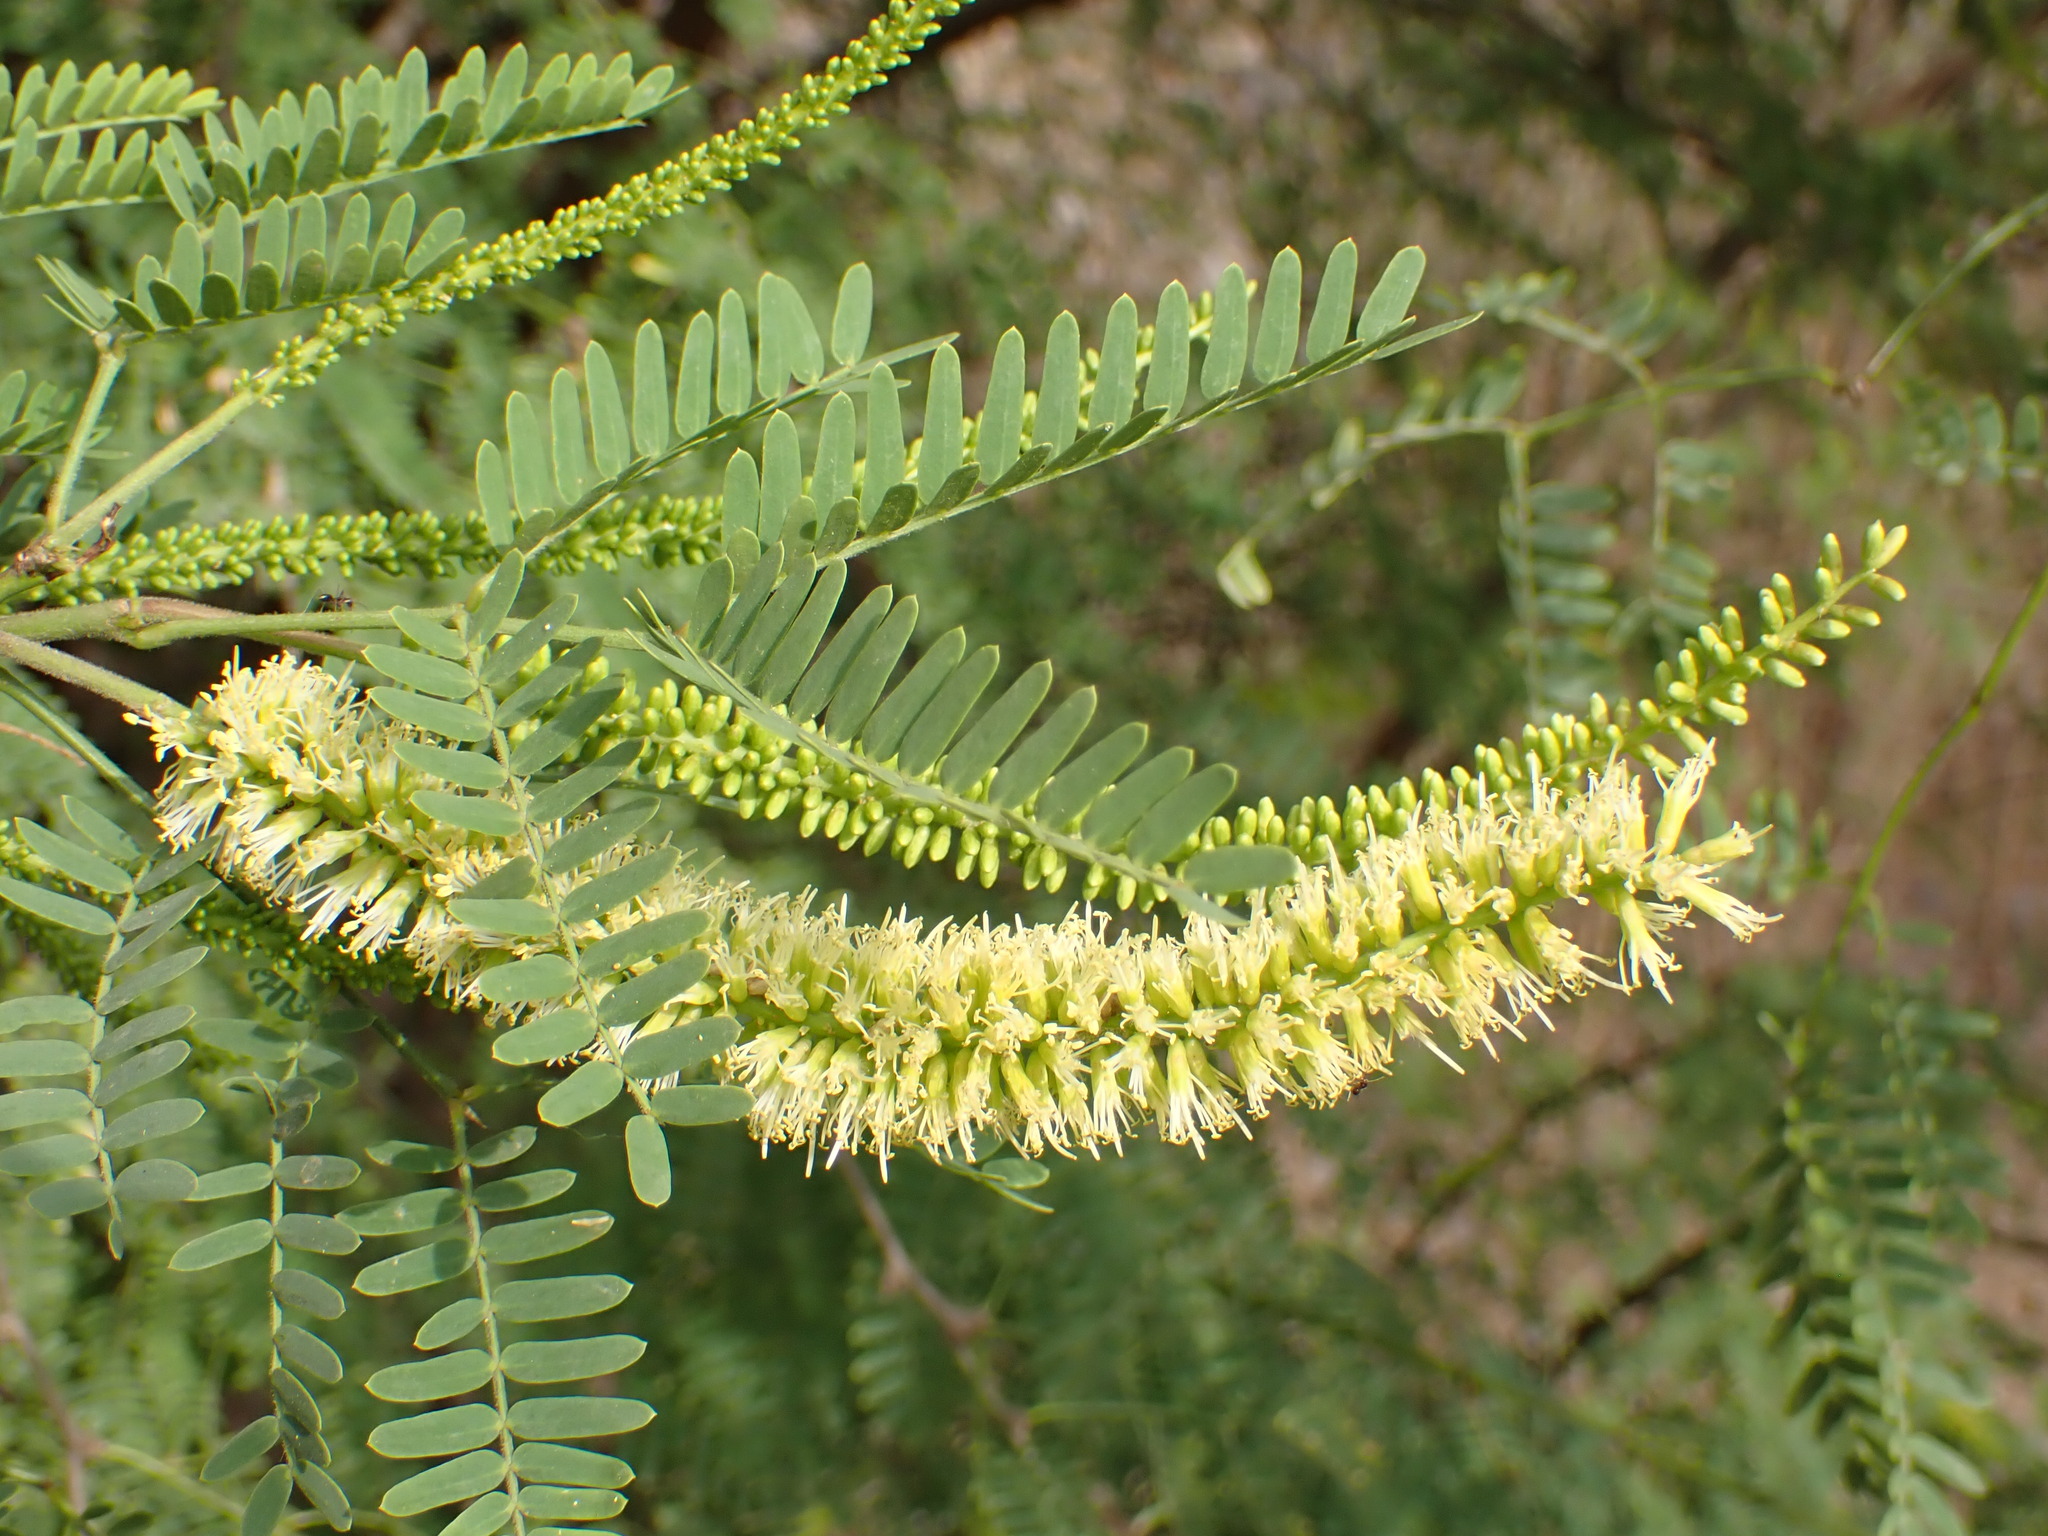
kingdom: Plantae
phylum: Tracheophyta
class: Magnoliopsida
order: Fabales
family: Fabaceae
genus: Prosopis
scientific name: Prosopis juliflora
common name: Mesquite
